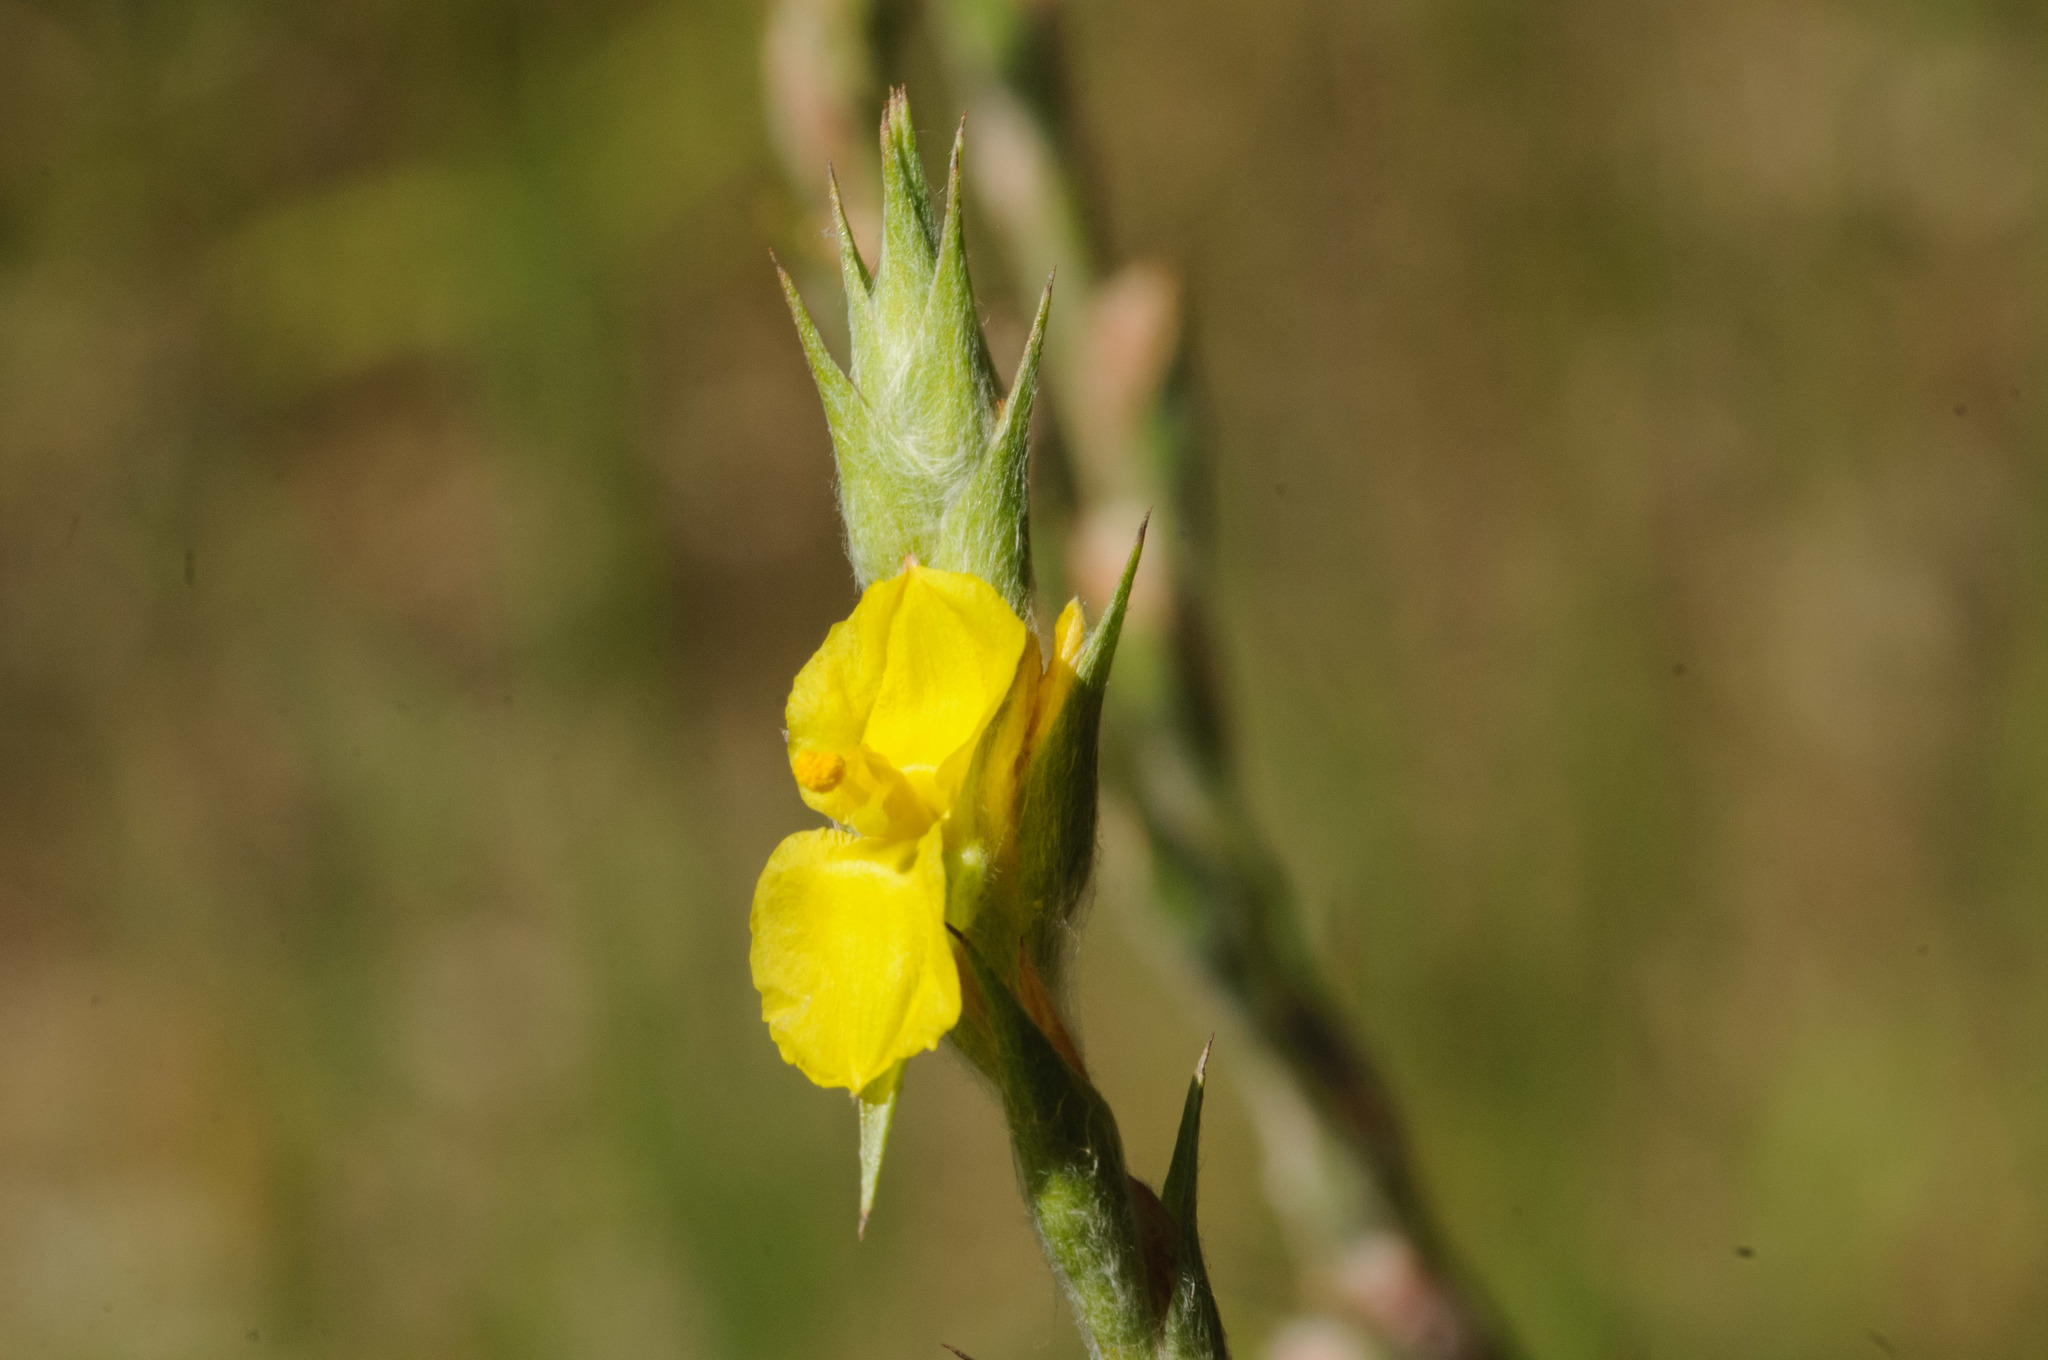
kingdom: Plantae
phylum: Tracheophyta
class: Liliopsida
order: Commelinales
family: Philydraceae
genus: Philydrum
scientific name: Philydrum lanuginosum
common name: Woolly frog's mouth
